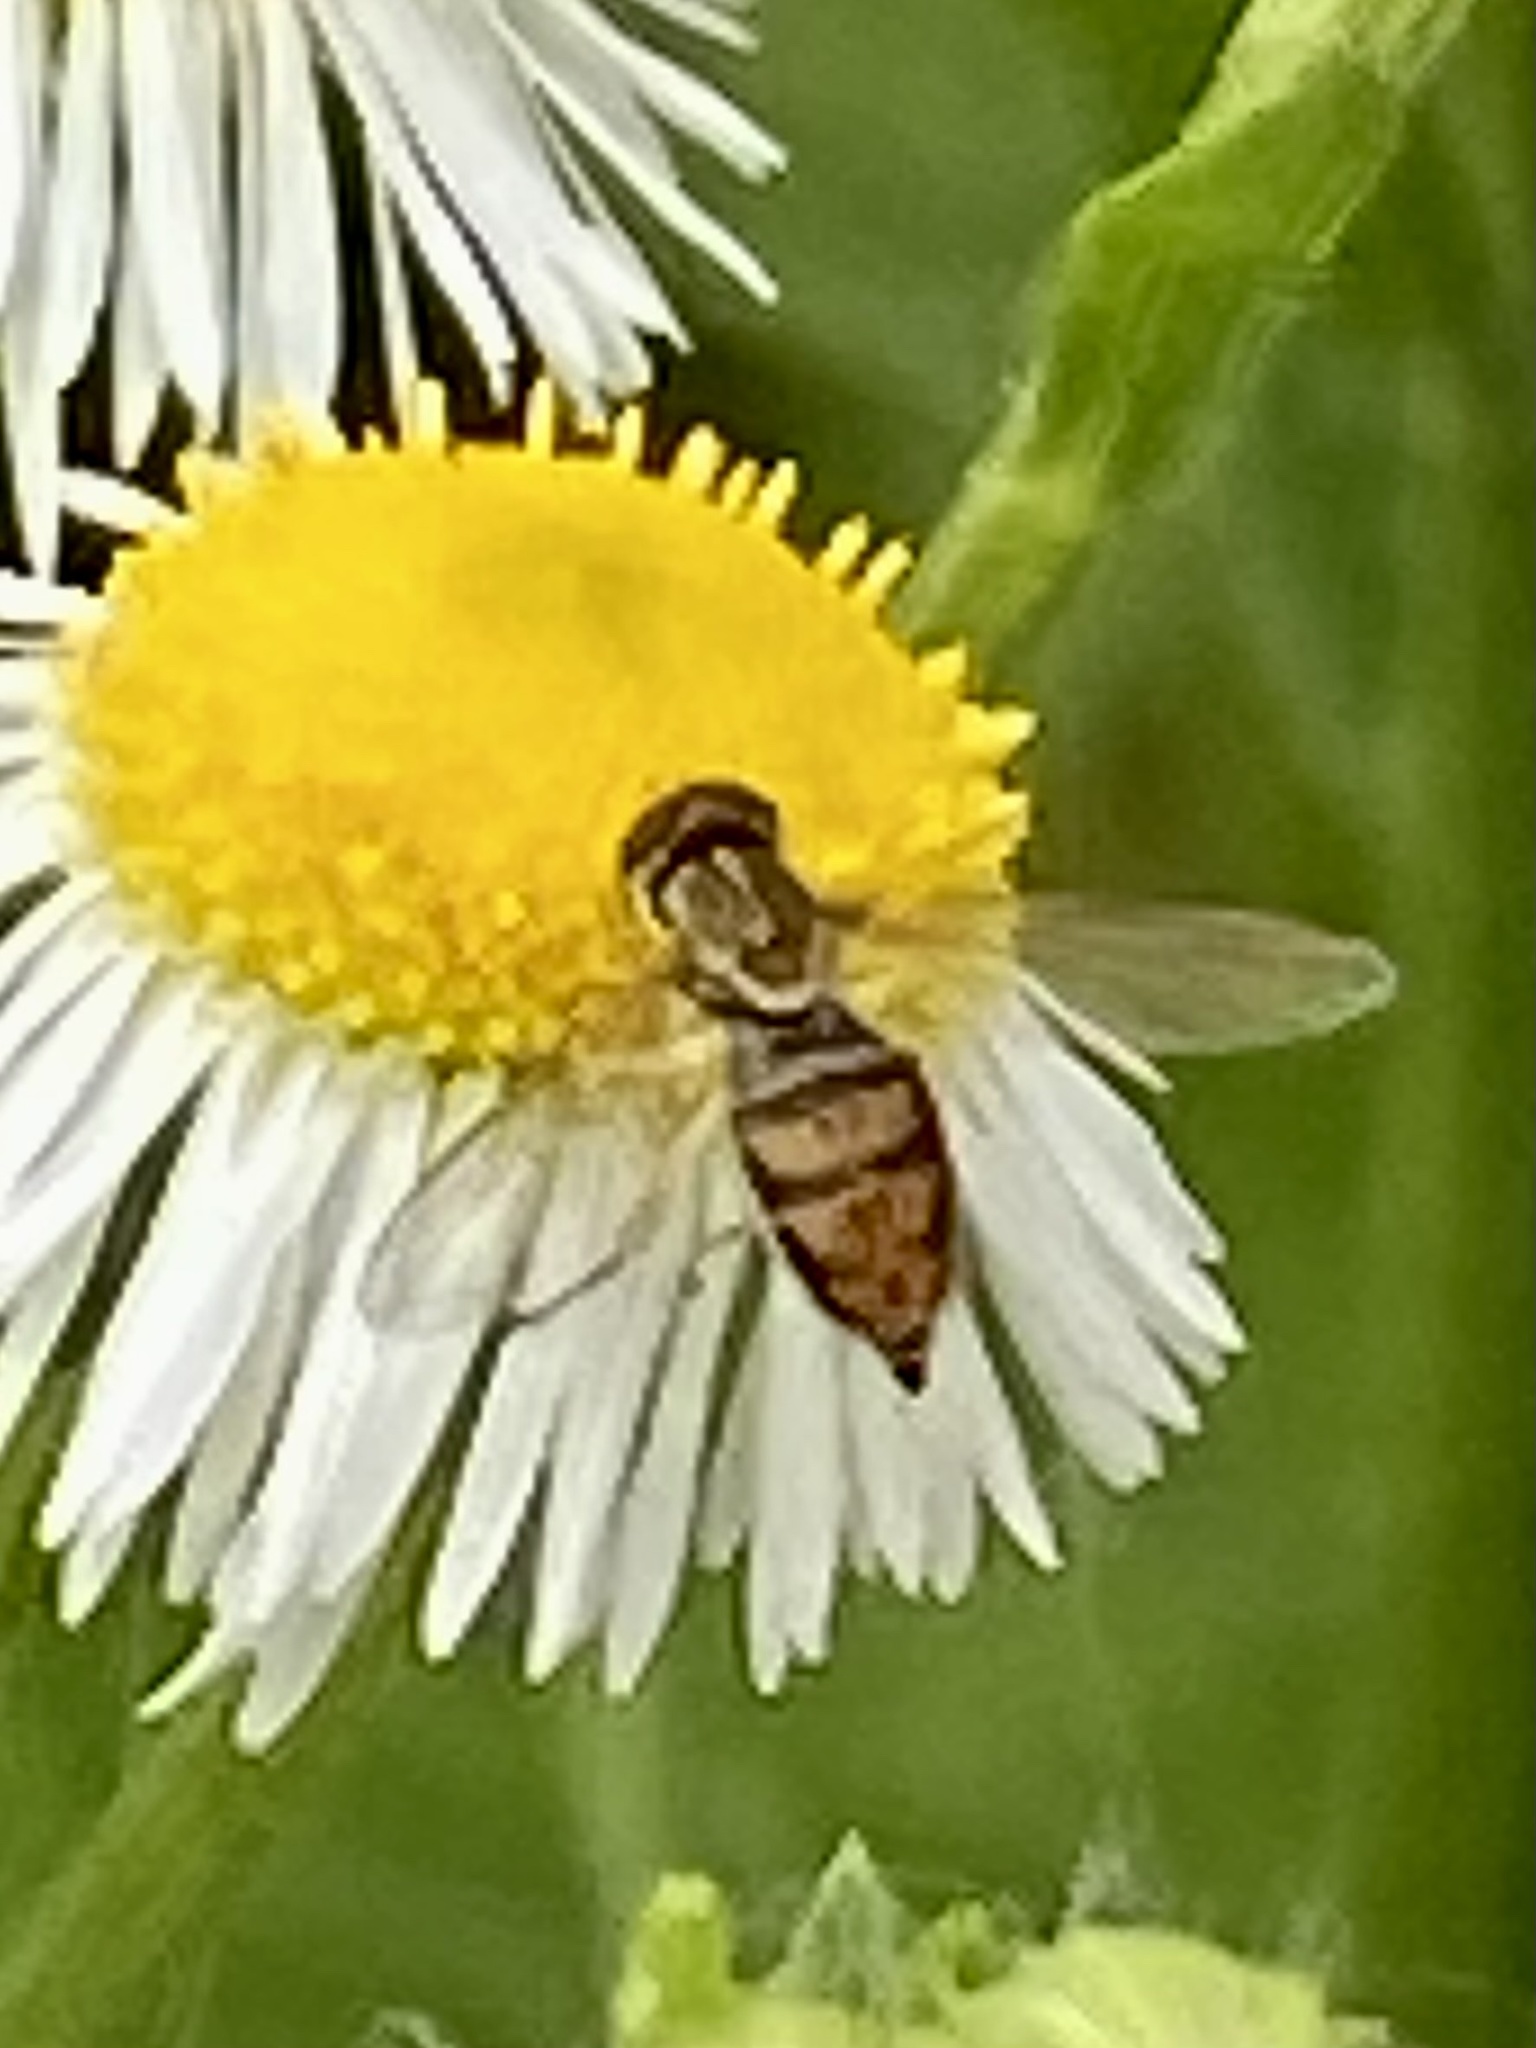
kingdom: Animalia
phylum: Arthropoda
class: Insecta
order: Diptera
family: Syrphidae
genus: Toxomerus
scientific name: Toxomerus marginatus
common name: Syrphid fly
